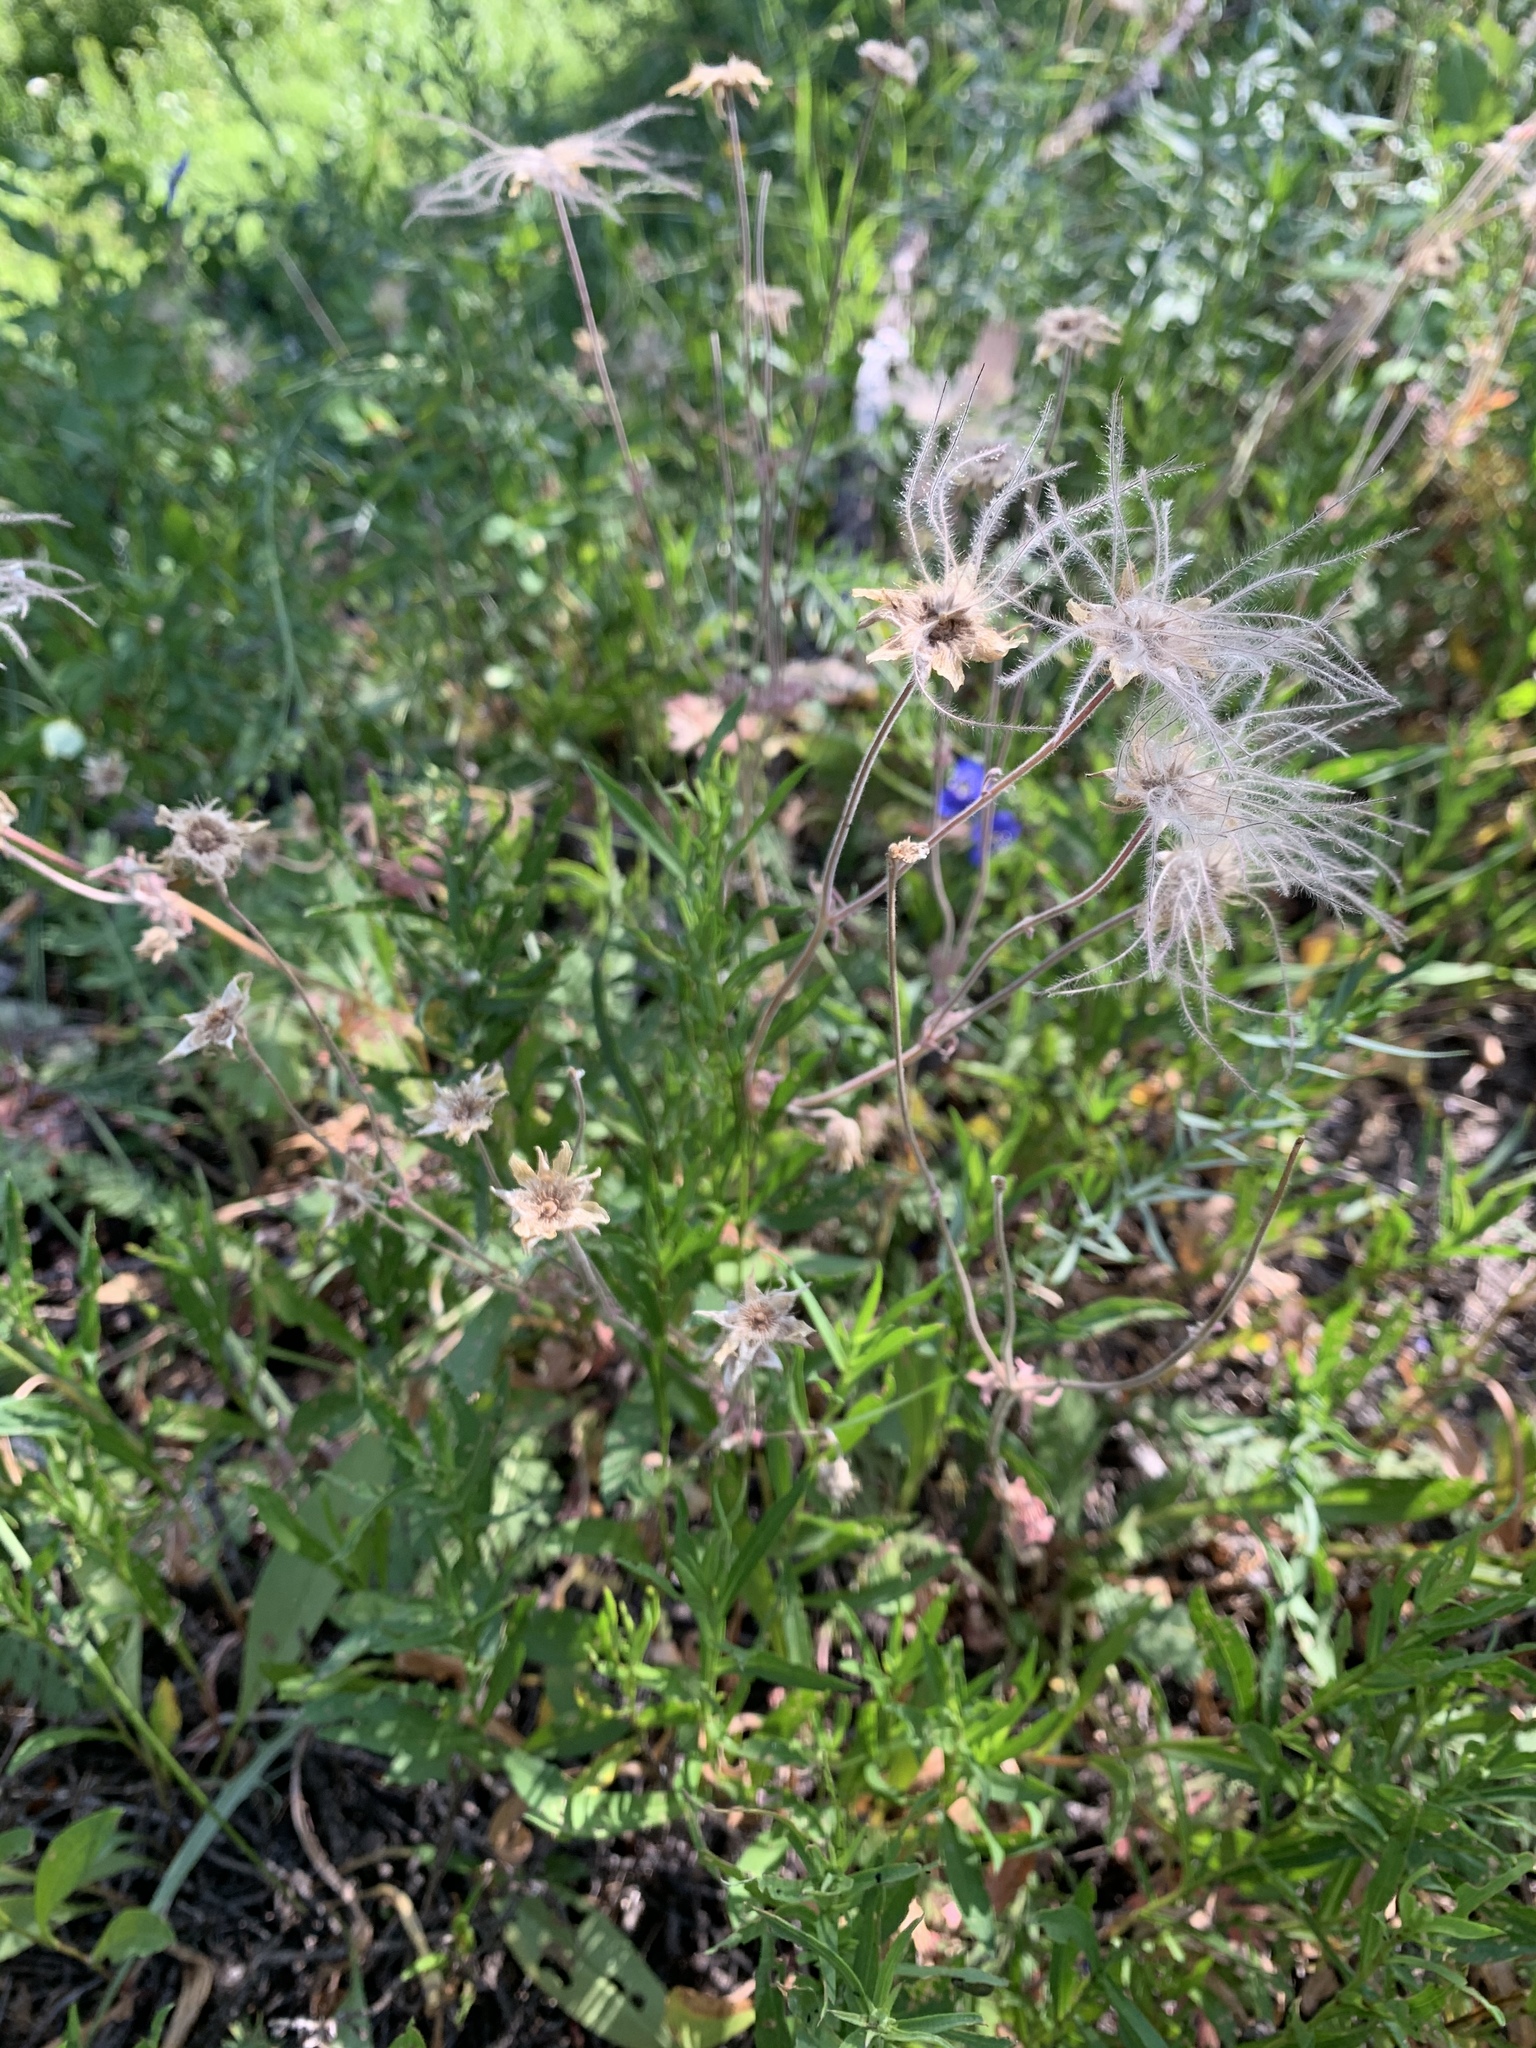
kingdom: Plantae
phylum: Tracheophyta
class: Magnoliopsida
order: Rosales
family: Rosaceae
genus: Geum
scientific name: Geum triflorum
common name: Old man's whiskers
